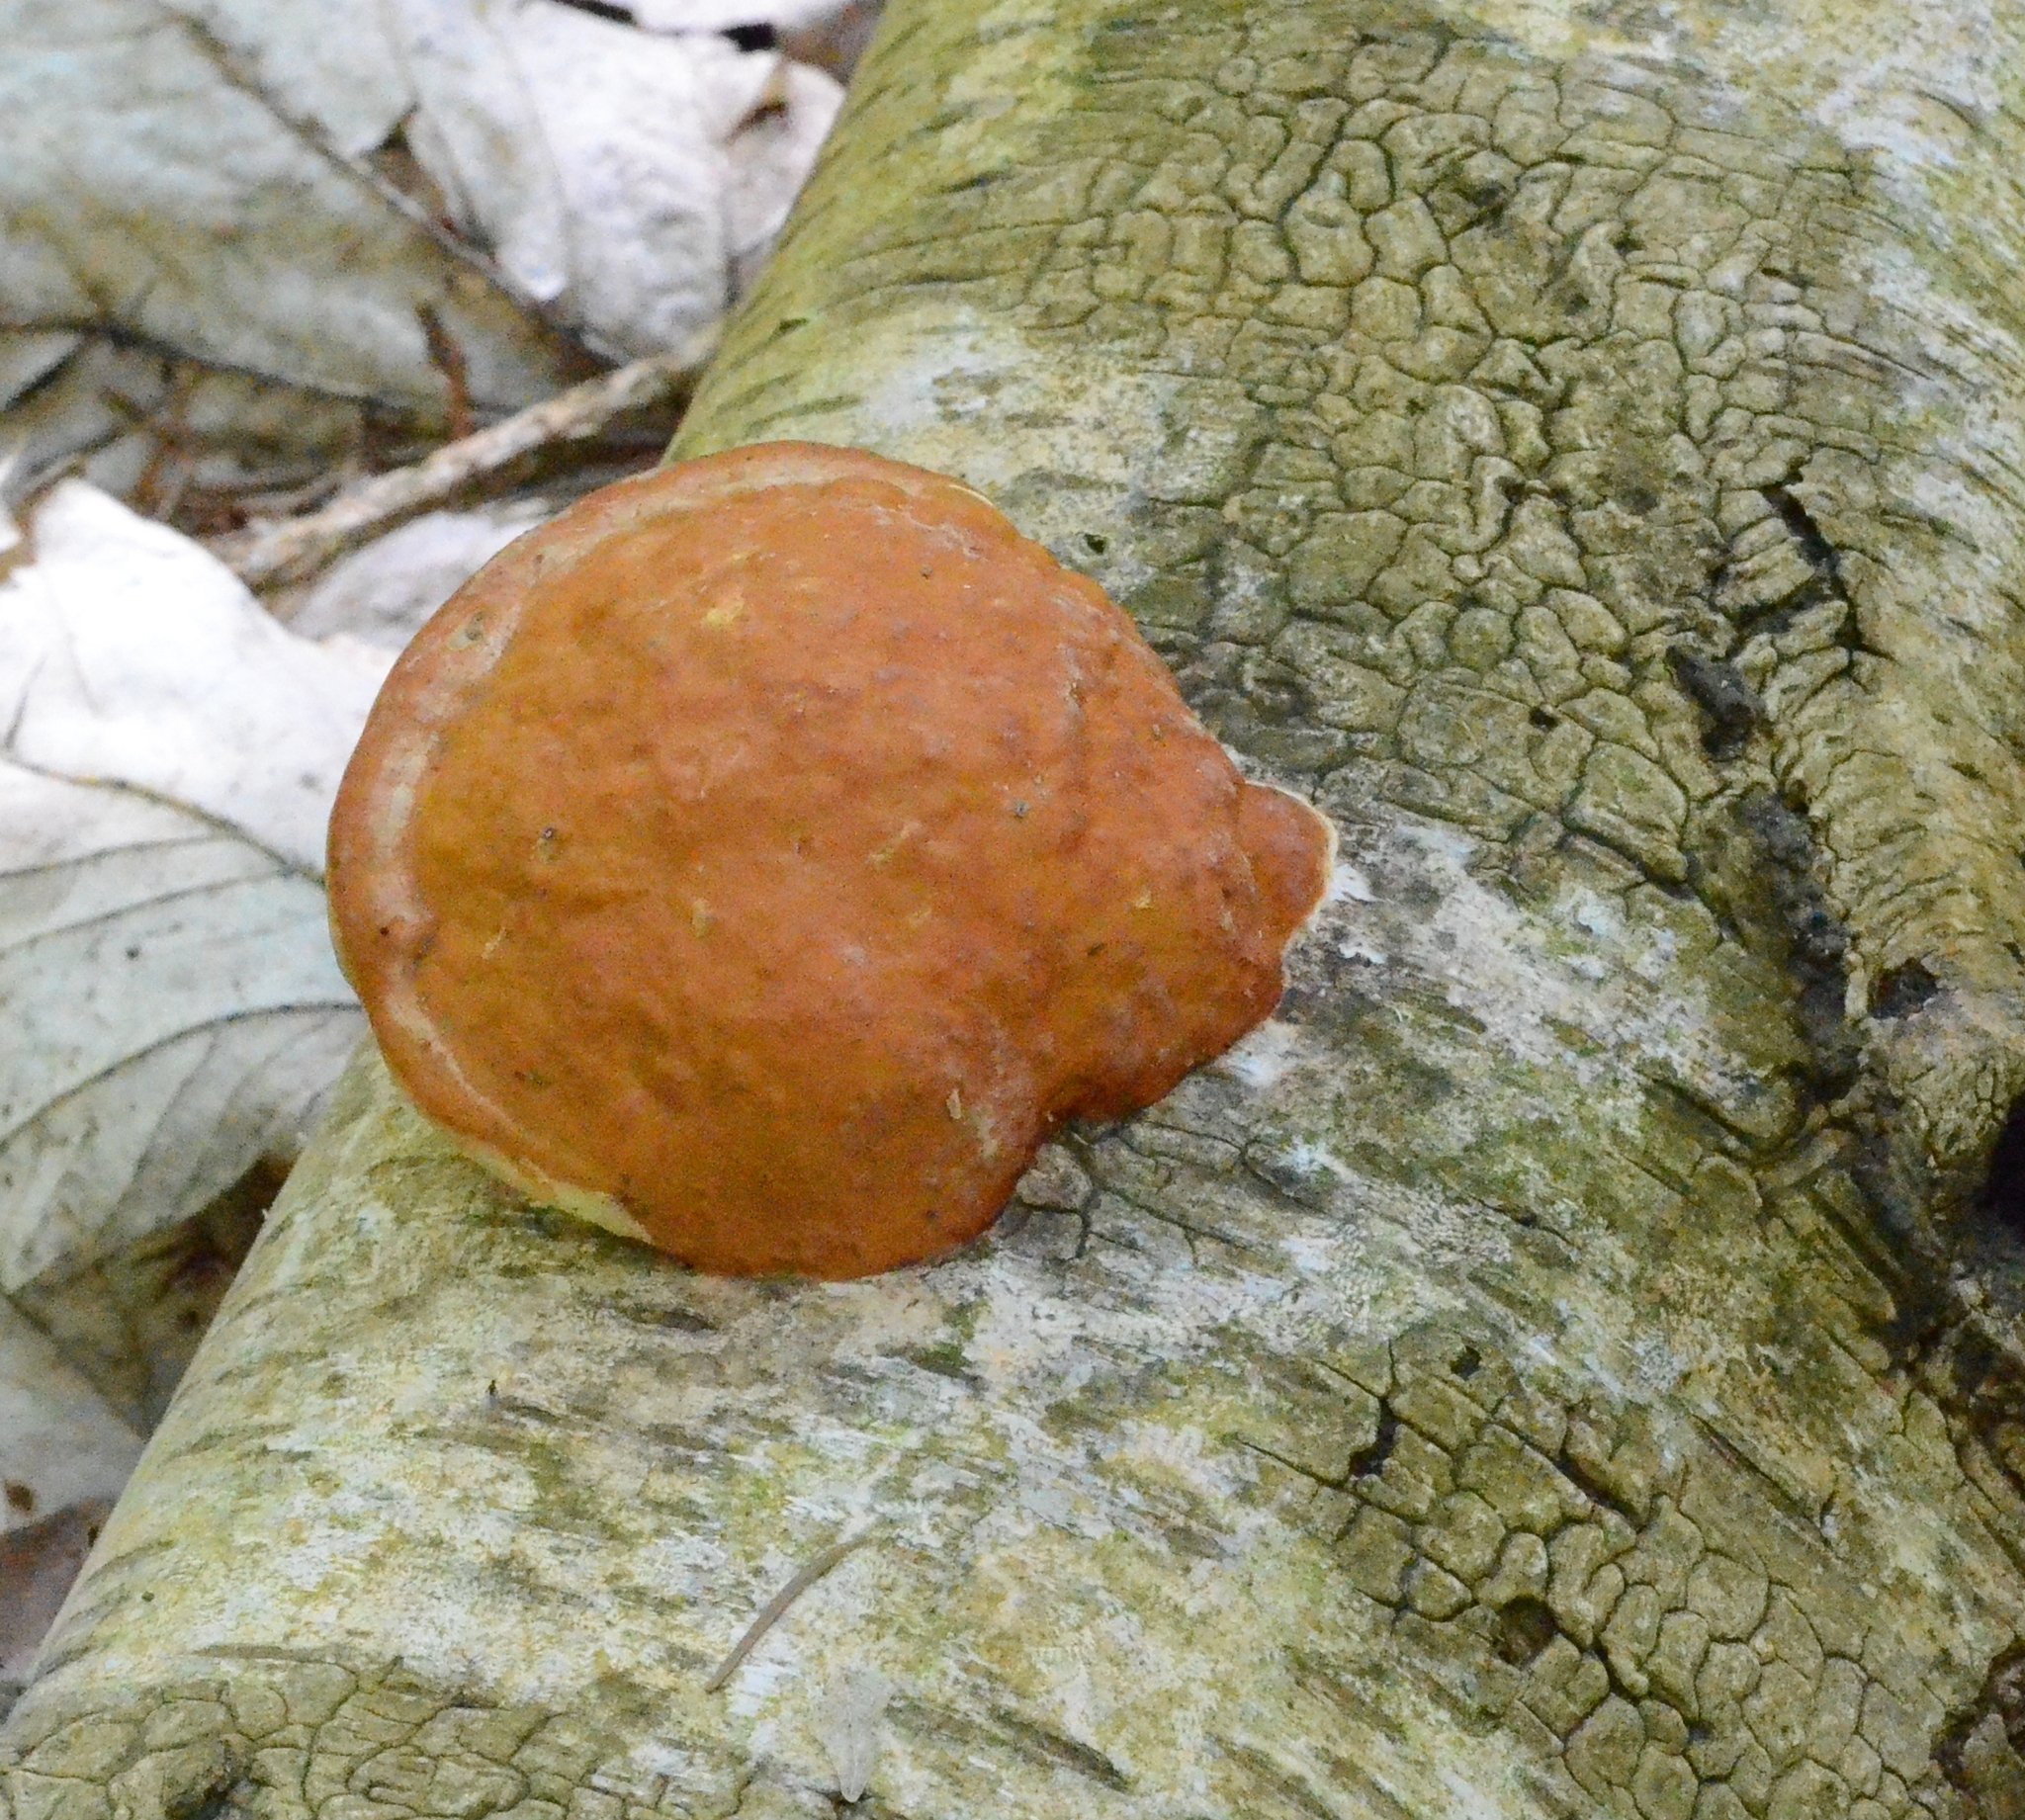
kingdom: Fungi
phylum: Basidiomycota
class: Agaricomycetes
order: Polyporales
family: Fomitopsidaceae
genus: Fomitopsis
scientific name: Fomitopsis pinicola
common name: Red-belted bracket
